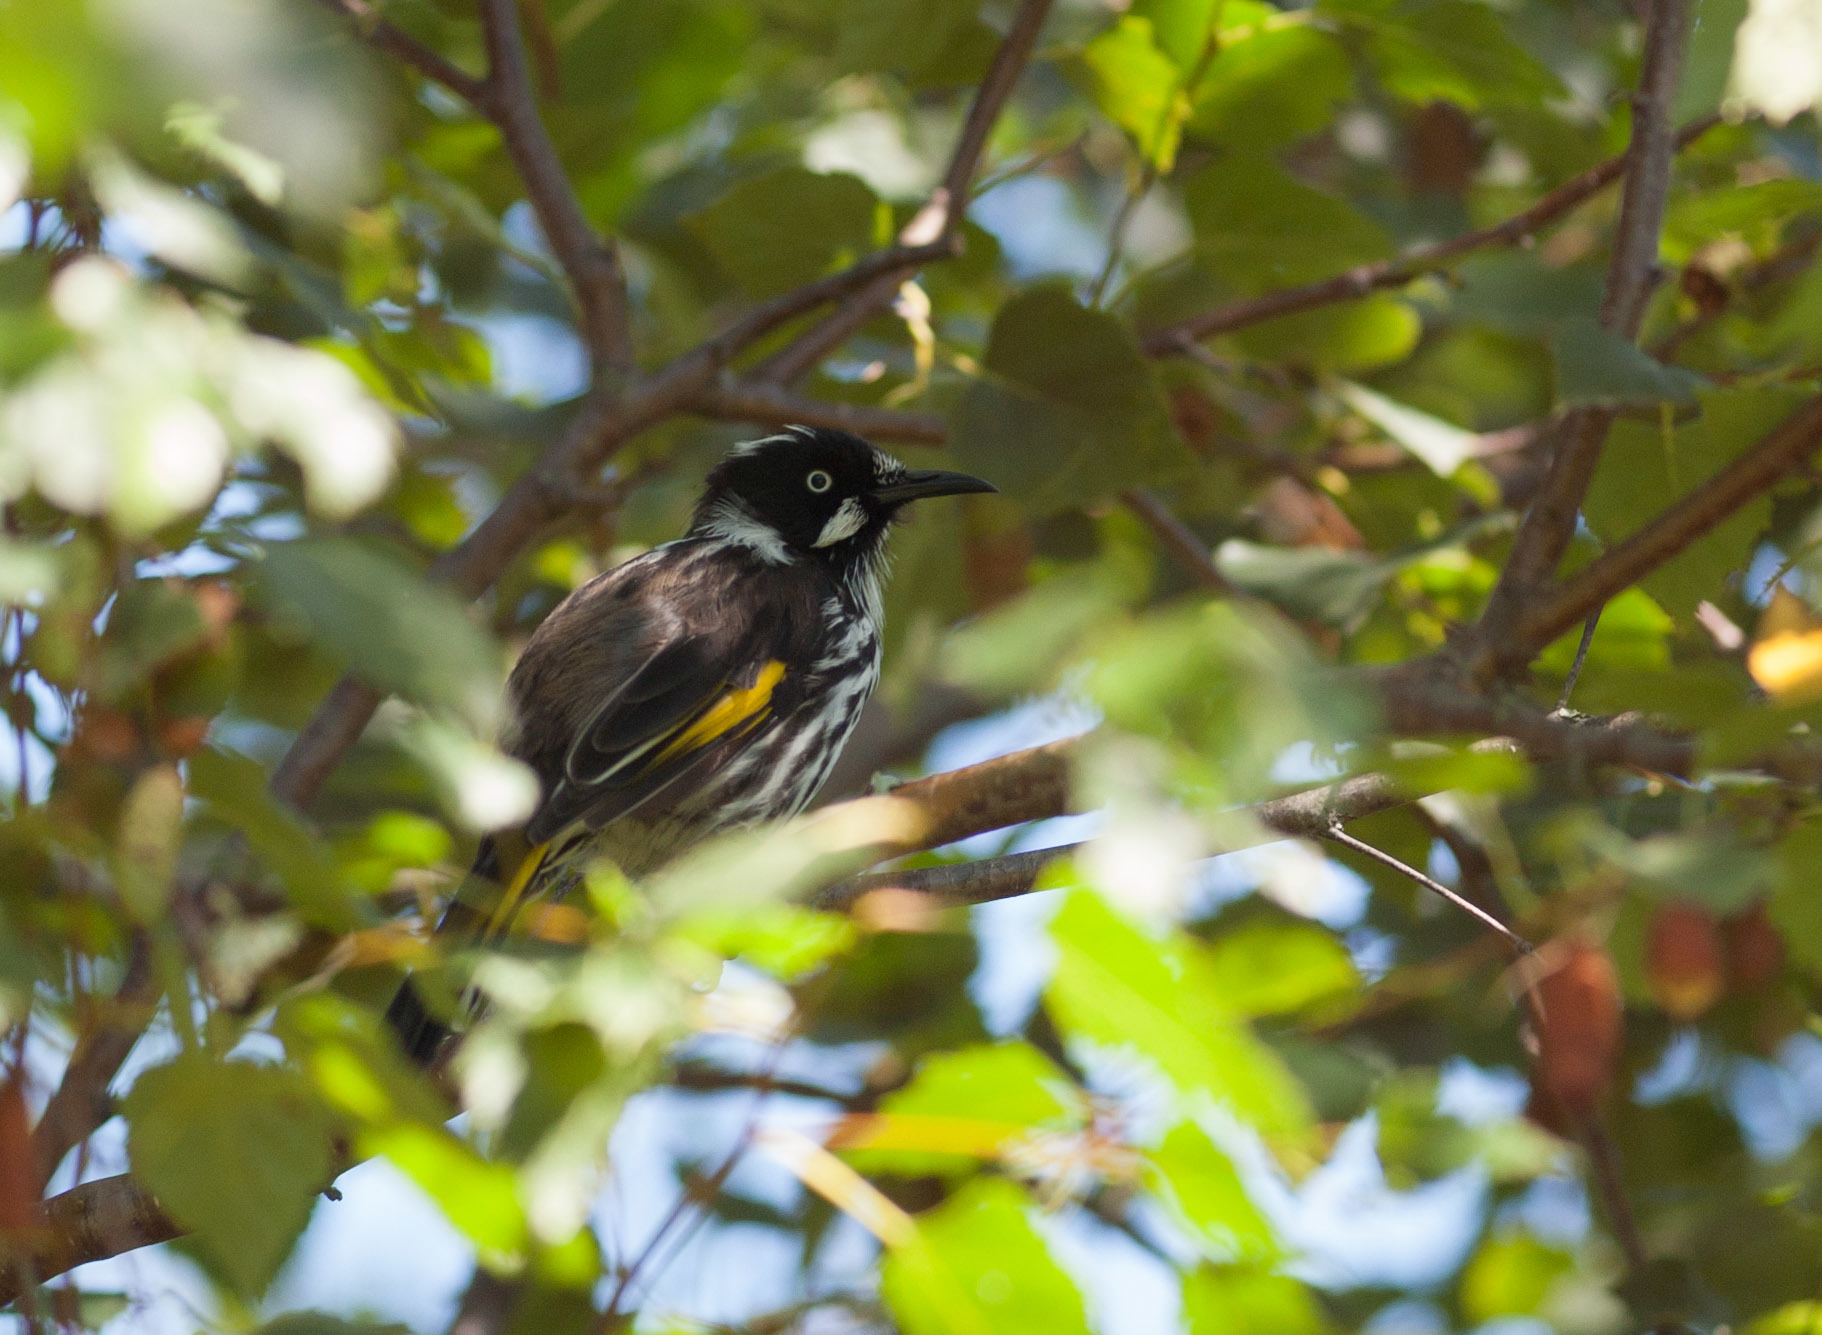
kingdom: Animalia
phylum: Chordata
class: Aves
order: Passeriformes
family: Meliphagidae
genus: Phylidonyris
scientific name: Phylidonyris novaehollandiae
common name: New holland honeyeater
